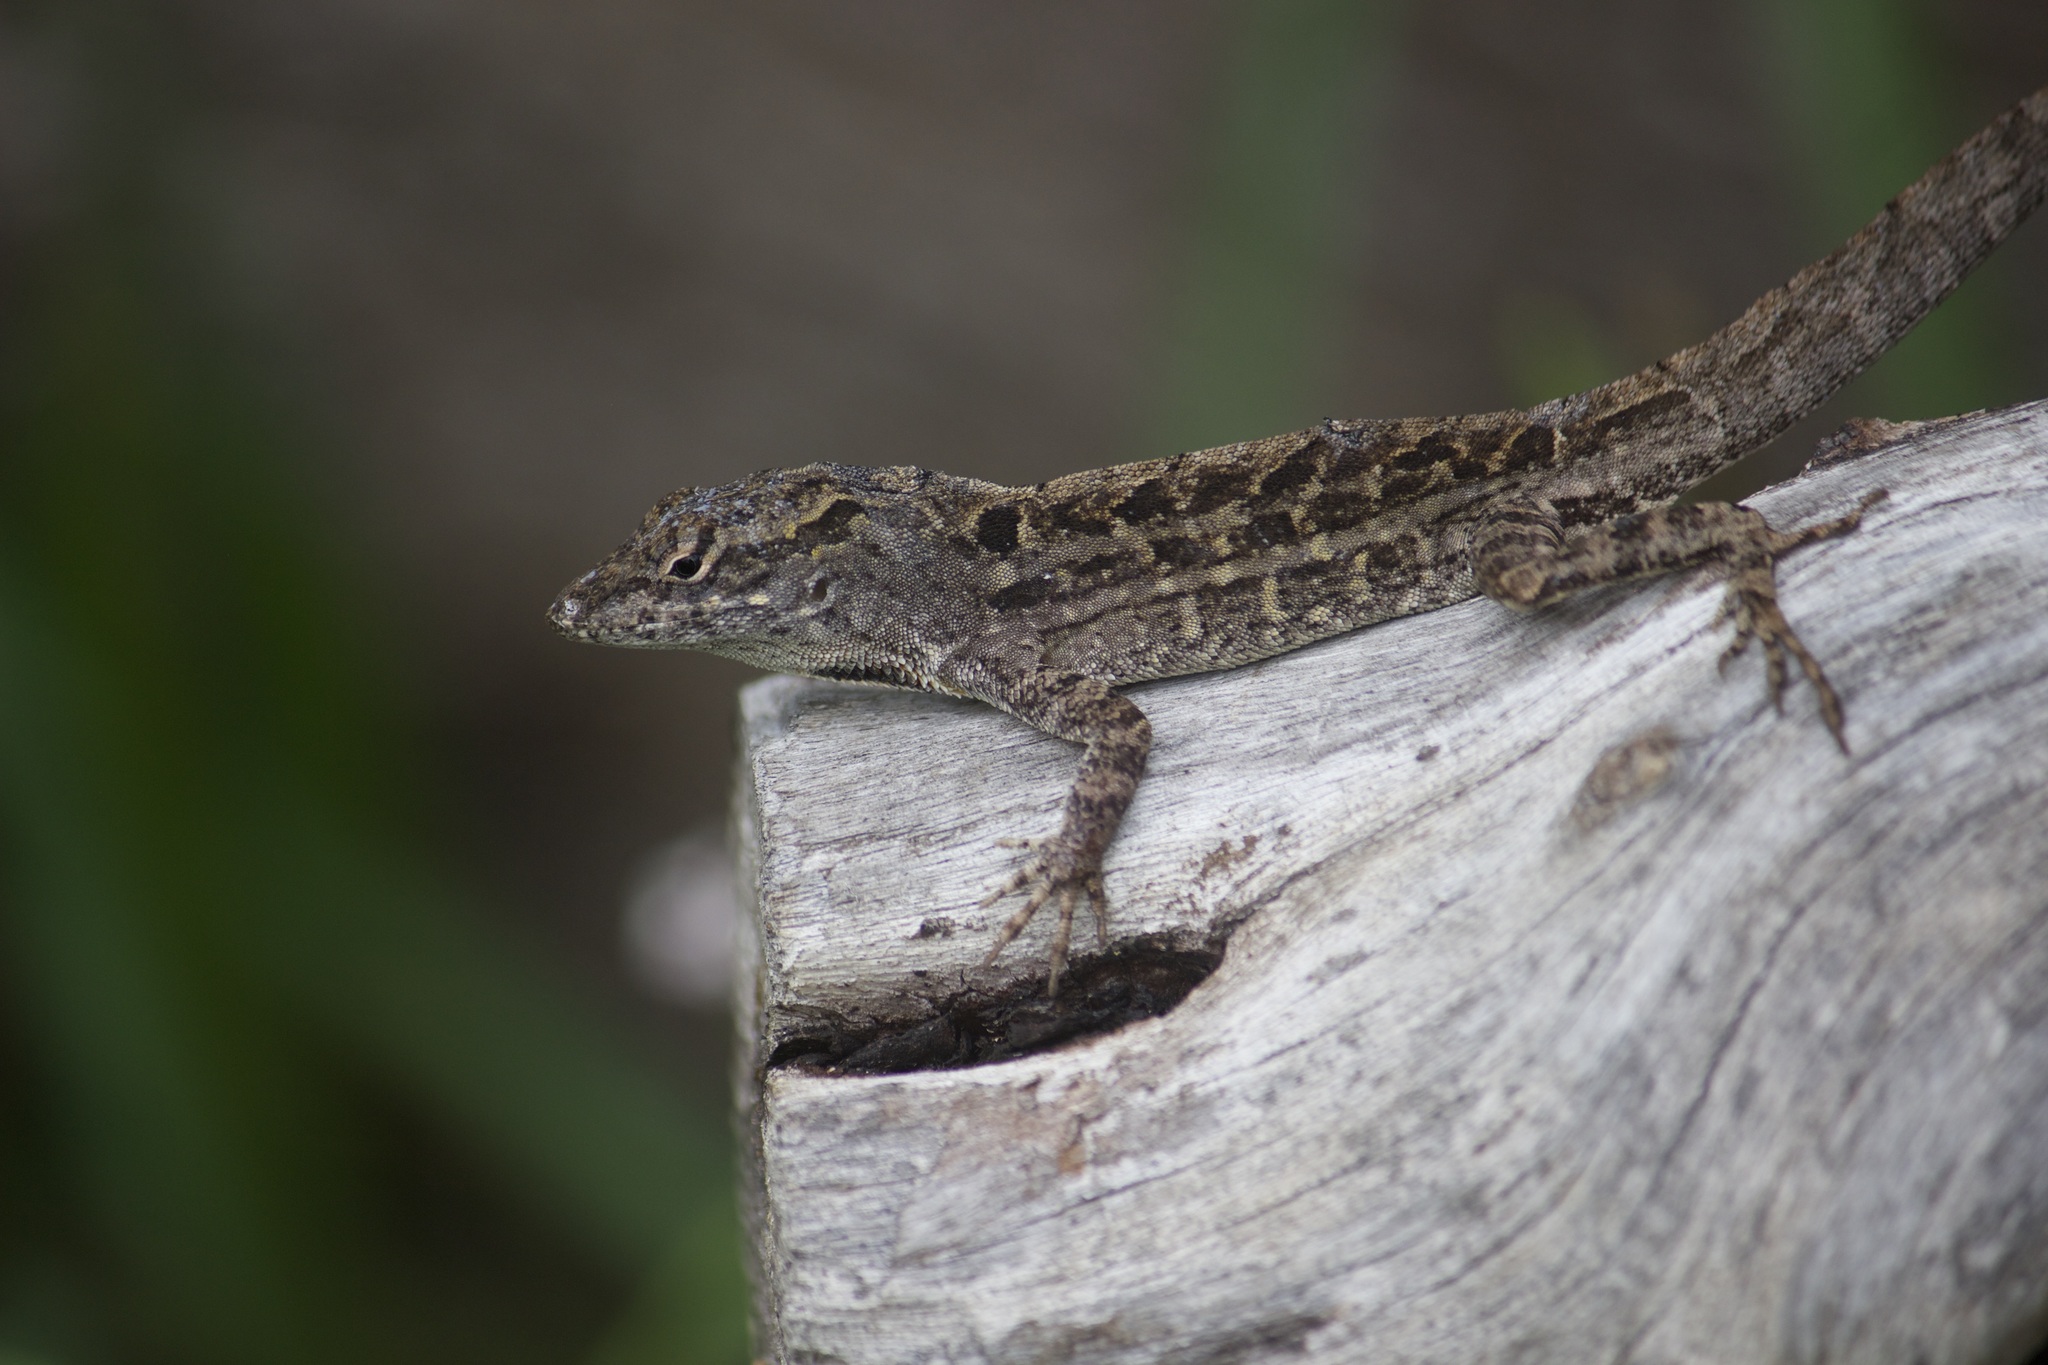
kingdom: Animalia
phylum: Chordata
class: Squamata
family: Dactyloidae
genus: Anolis
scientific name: Anolis sagrei
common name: Brown anole
